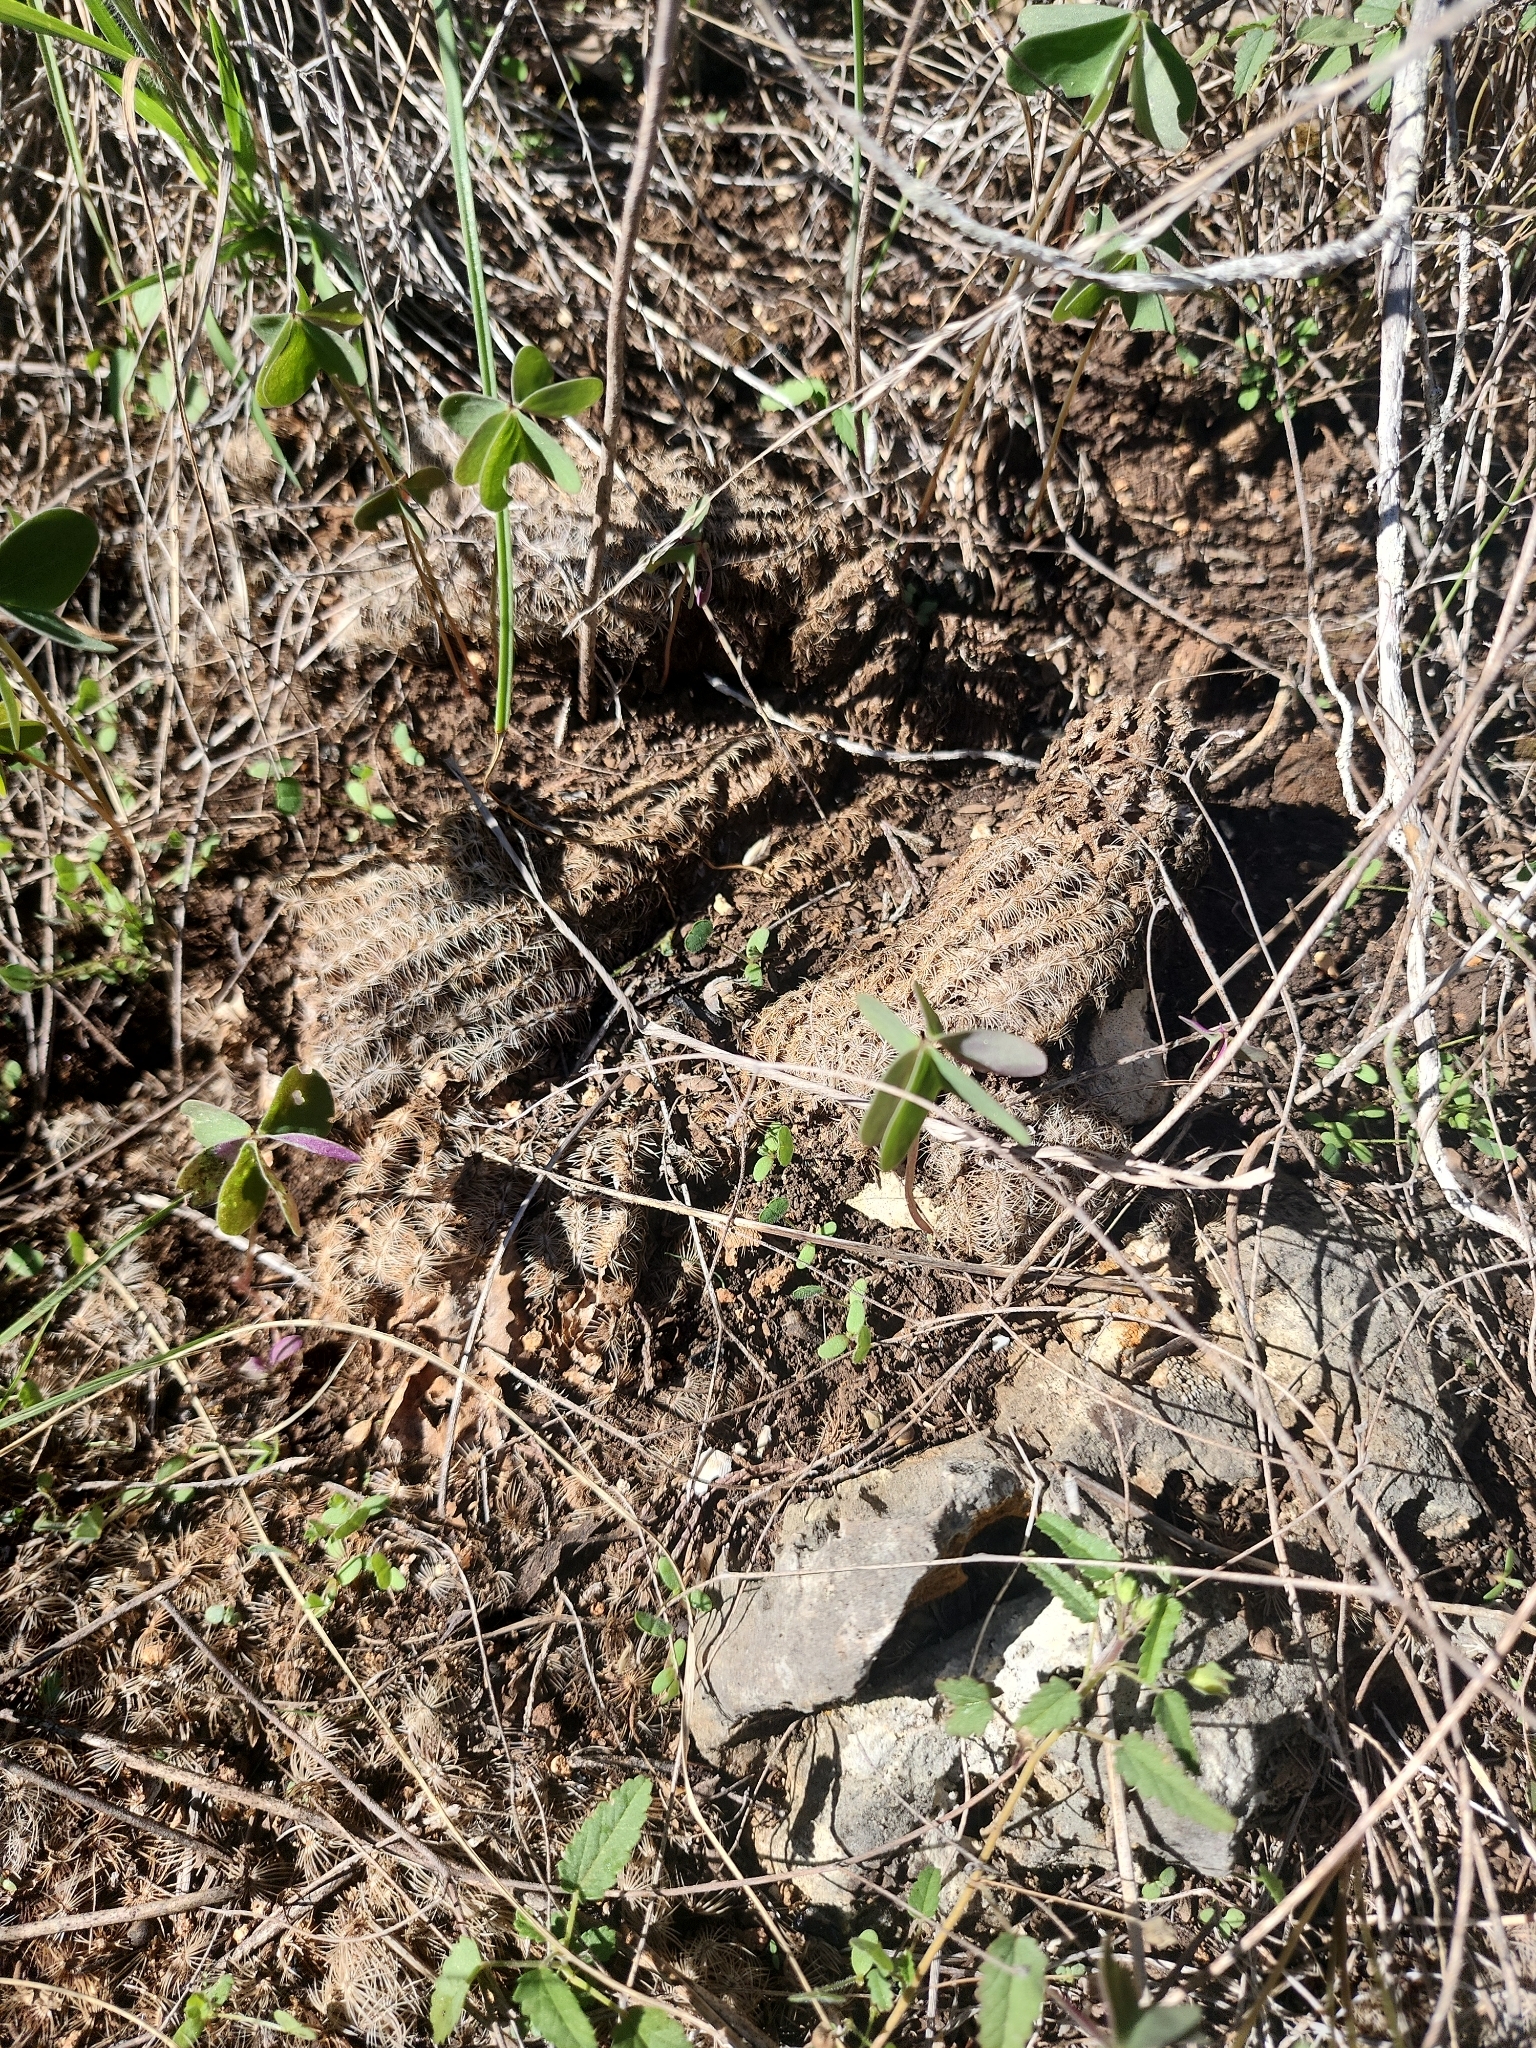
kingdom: Plantae
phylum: Tracheophyta
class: Magnoliopsida
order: Caryophyllales
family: Cactaceae
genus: Echinocereus
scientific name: Echinocereus reichenbachii
